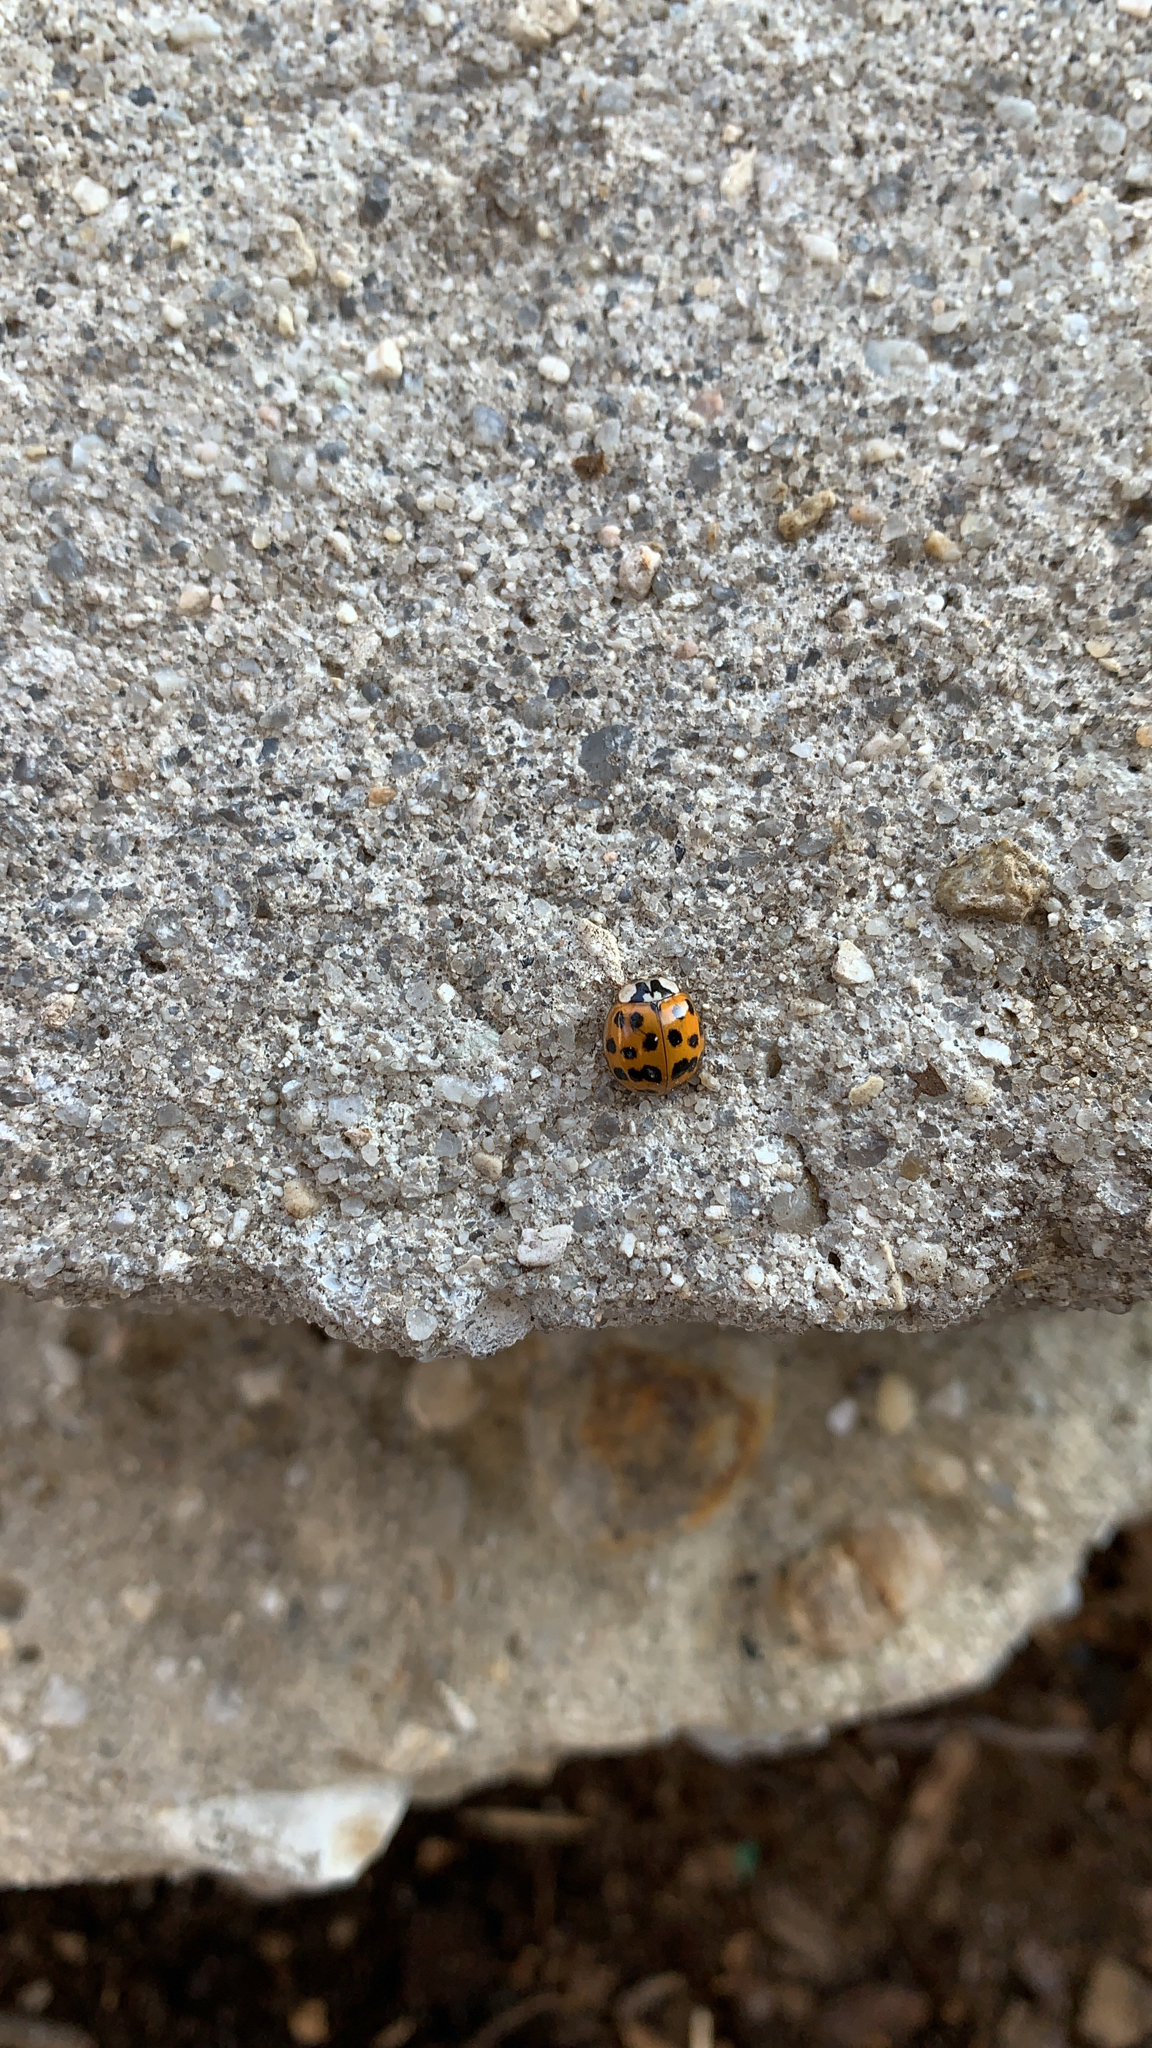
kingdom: Animalia
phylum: Arthropoda
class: Insecta
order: Coleoptera
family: Coccinellidae
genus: Harmonia
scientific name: Harmonia axyridis
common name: Harlequin ladybird
